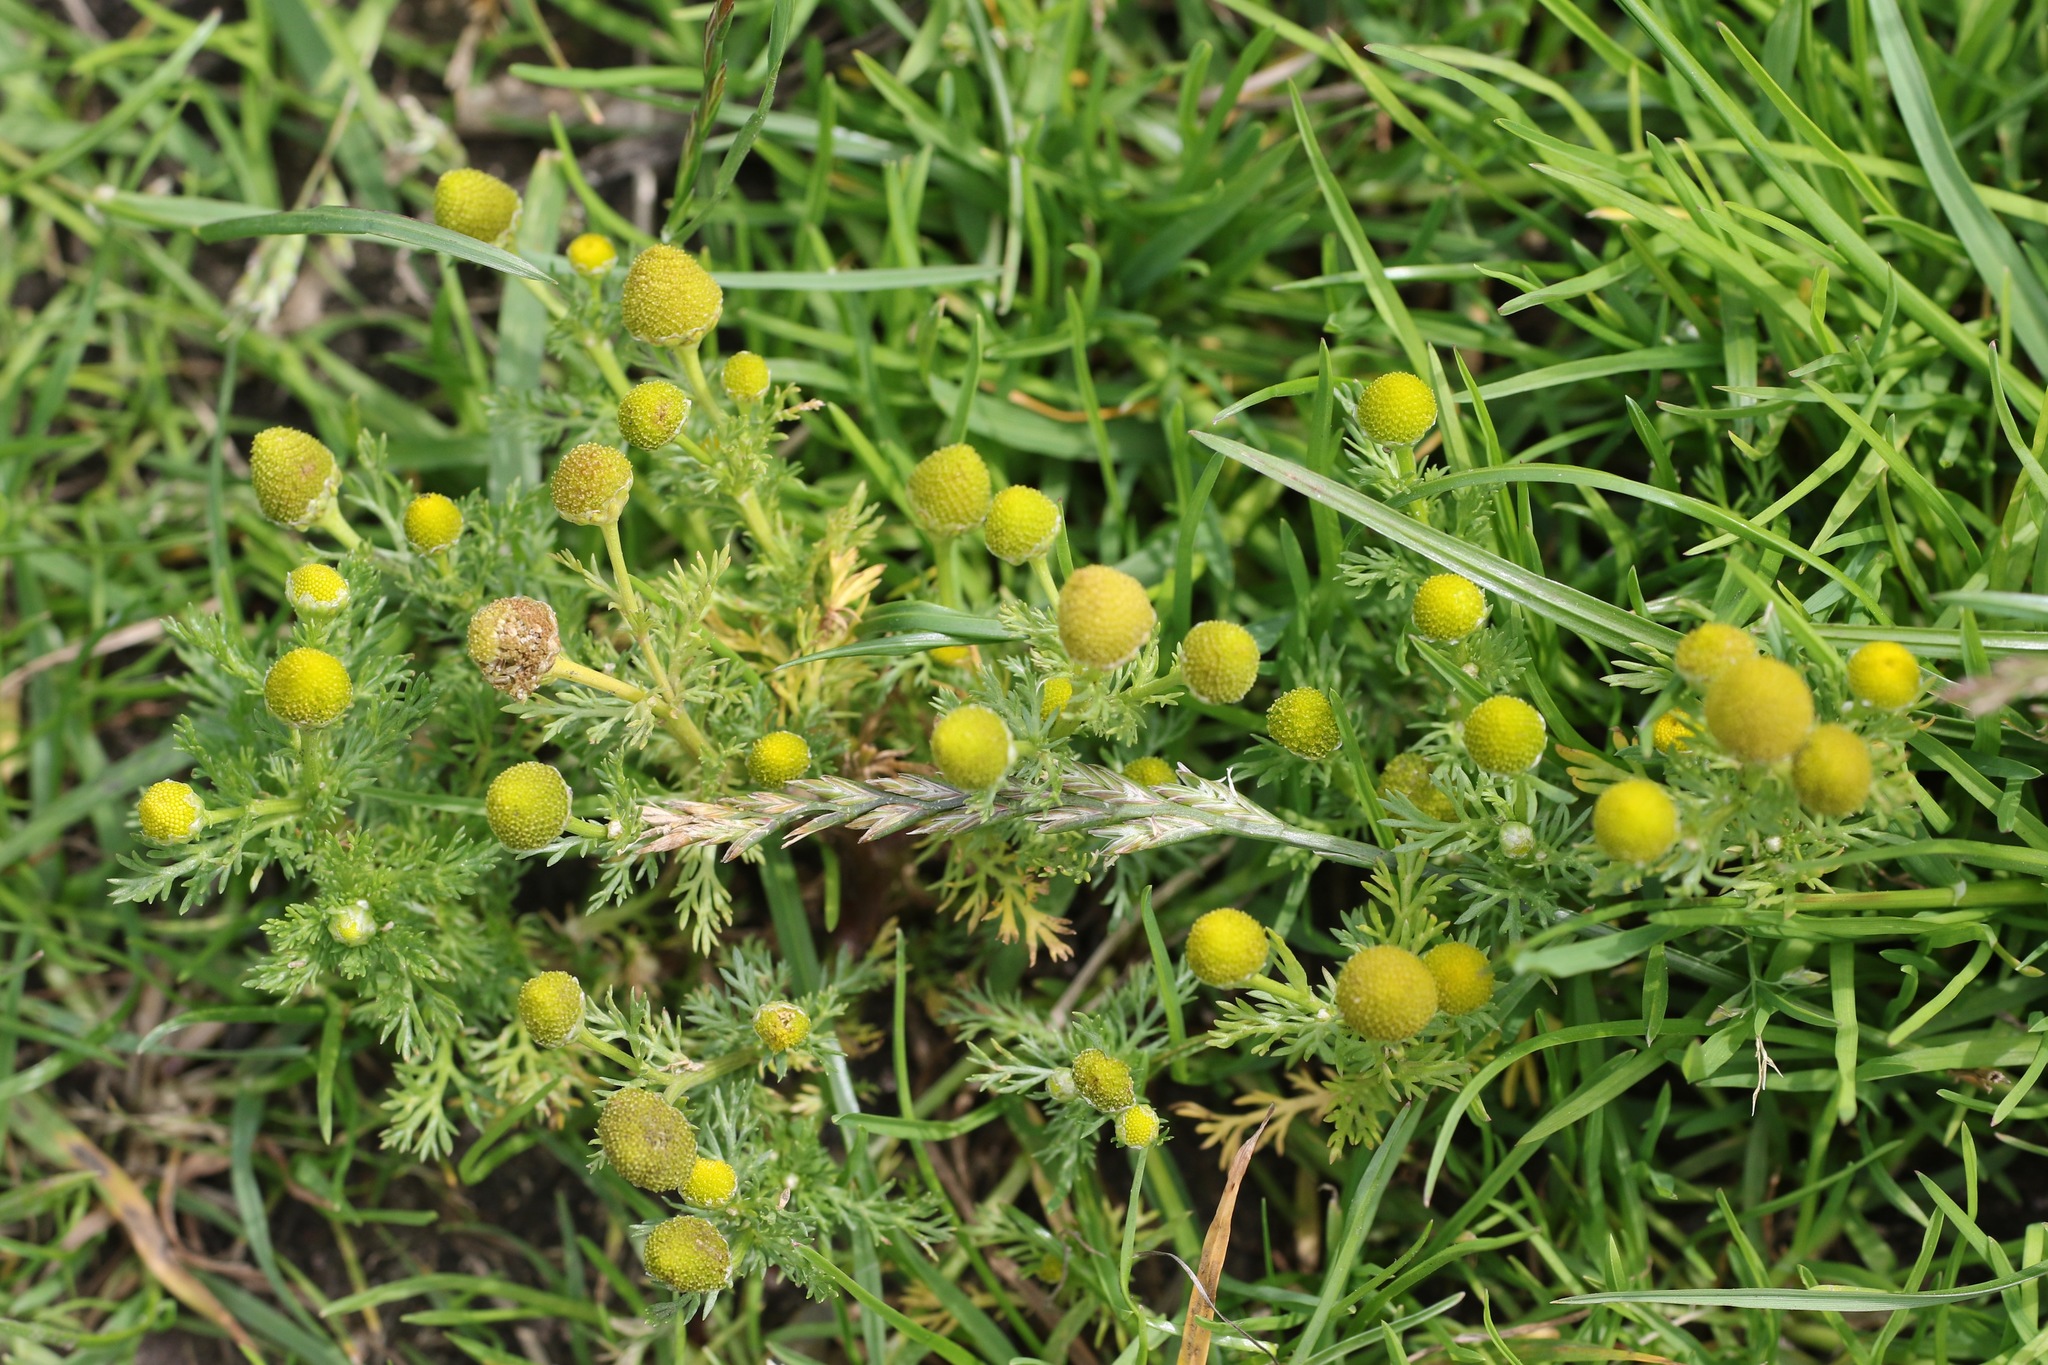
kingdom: Plantae
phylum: Tracheophyta
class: Magnoliopsida
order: Asterales
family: Asteraceae
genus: Matricaria
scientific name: Matricaria discoidea
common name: Disc mayweed
